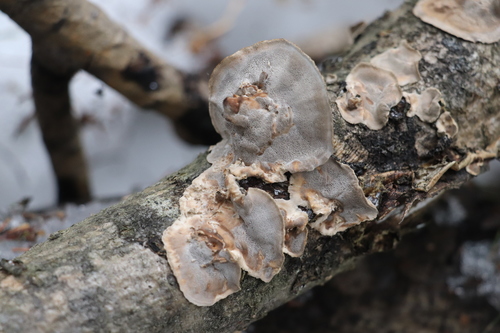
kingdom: Fungi
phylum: Basidiomycota
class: Agaricomycetes
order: Polyporales
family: Phanerochaetaceae
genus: Bjerkandera
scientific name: Bjerkandera adusta
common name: Smoky bracket
